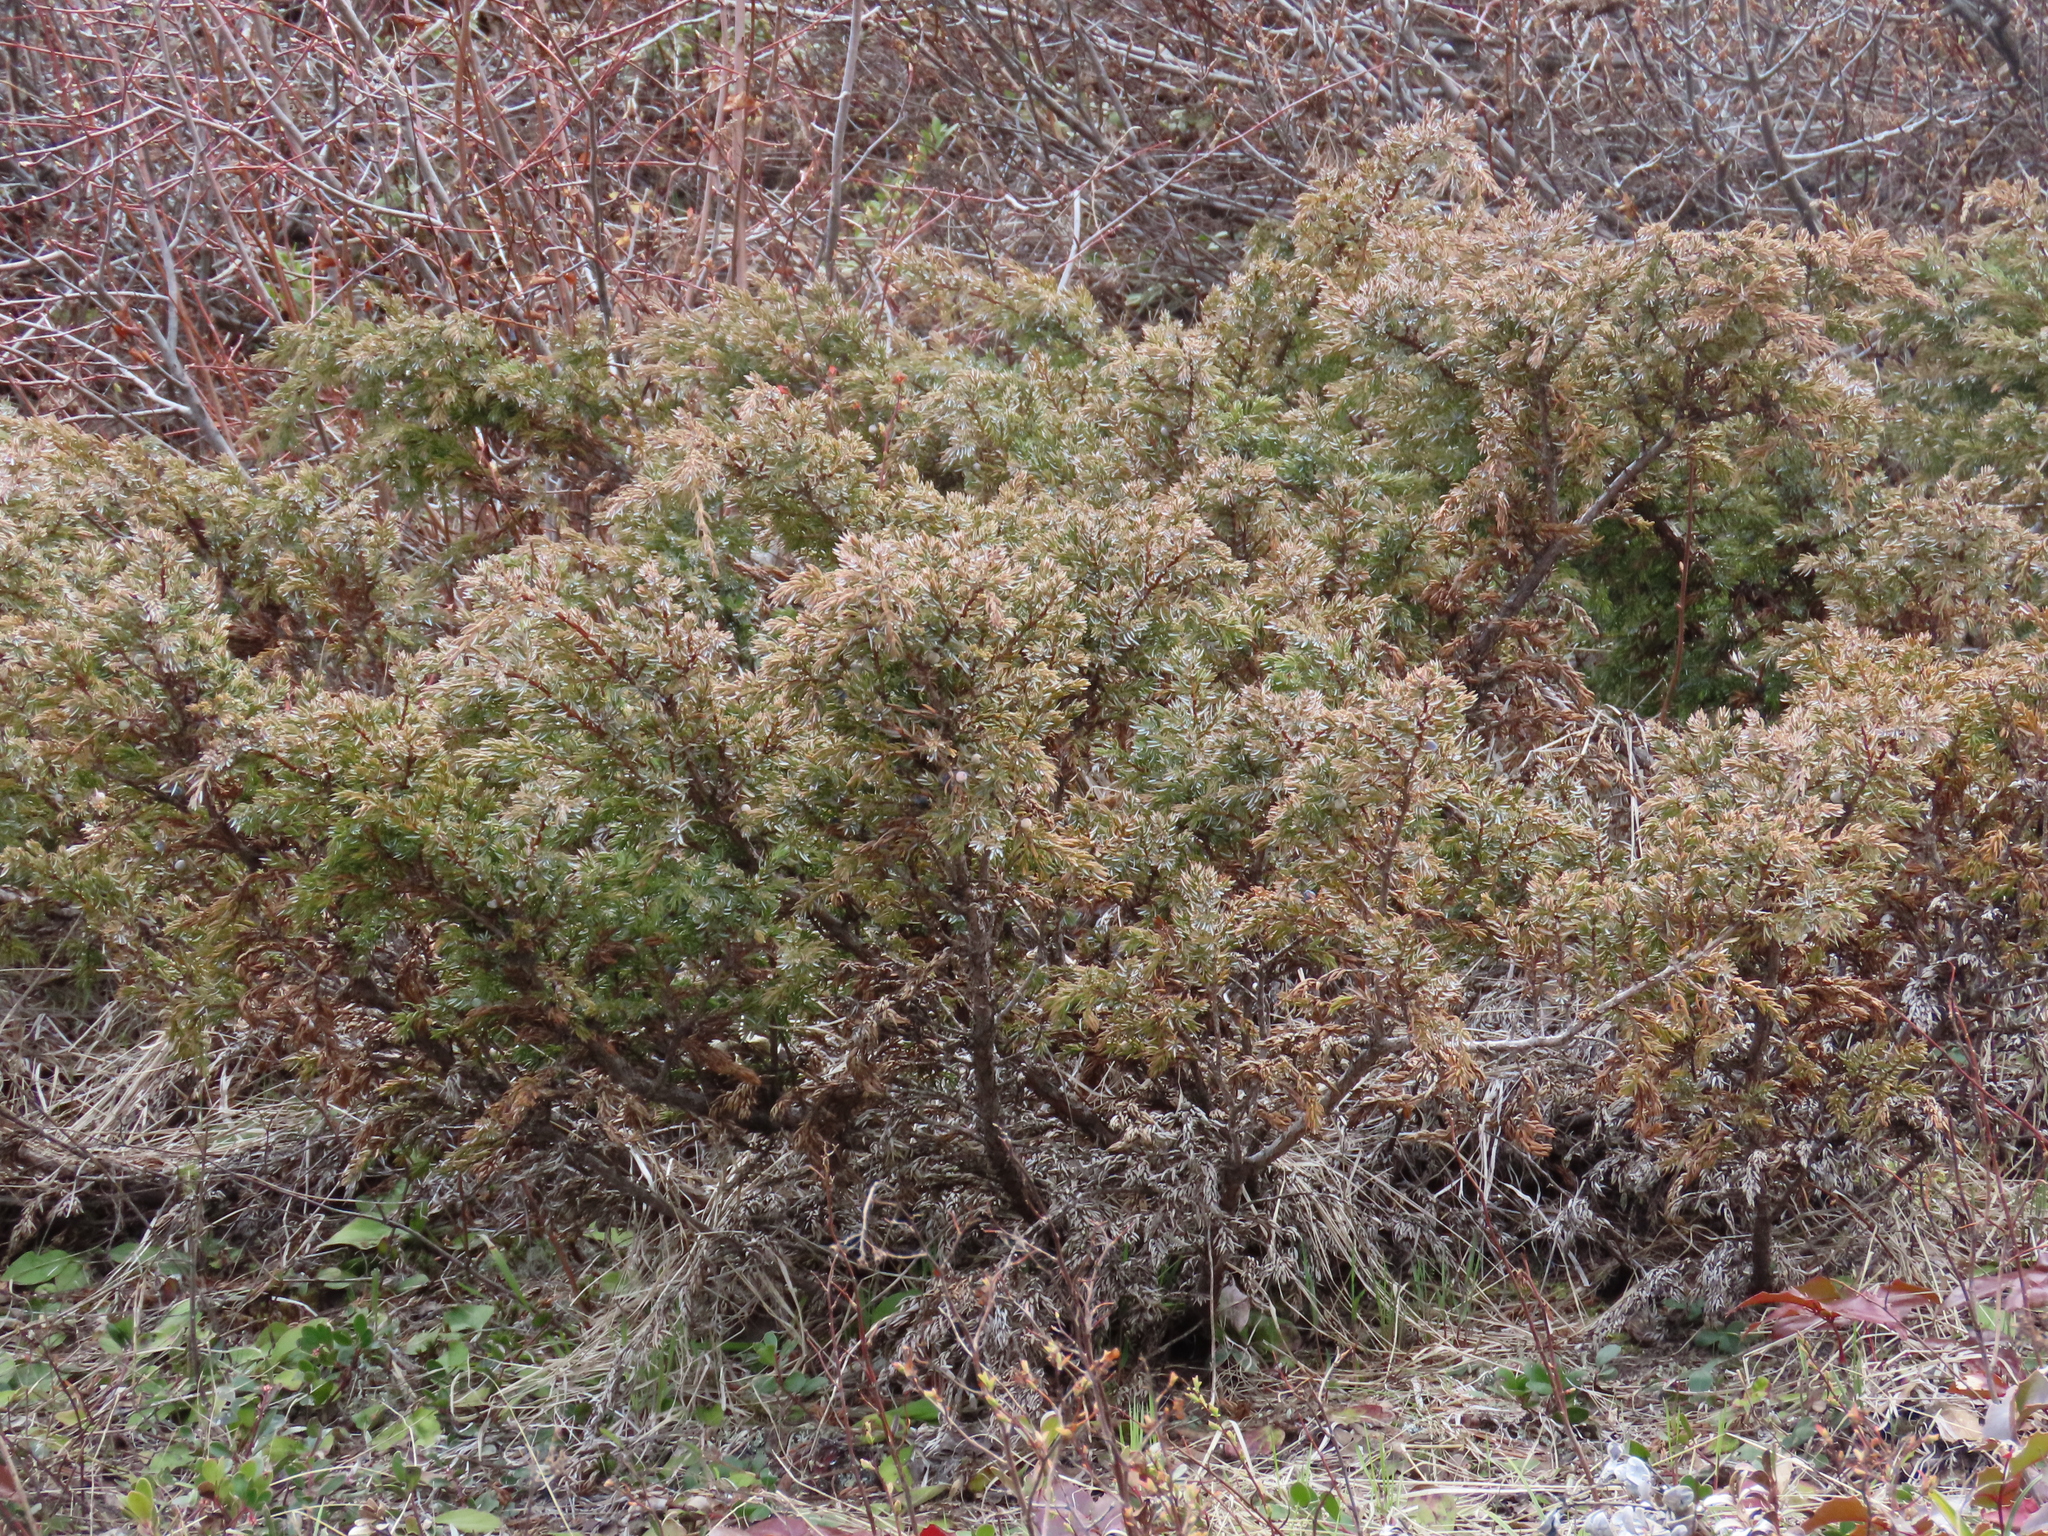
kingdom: Plantae
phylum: Tracheophyta
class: Pinopsida
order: Pinales
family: Cupressaceae
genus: Juniperus
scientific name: Juniperus communis
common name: Common juniper
